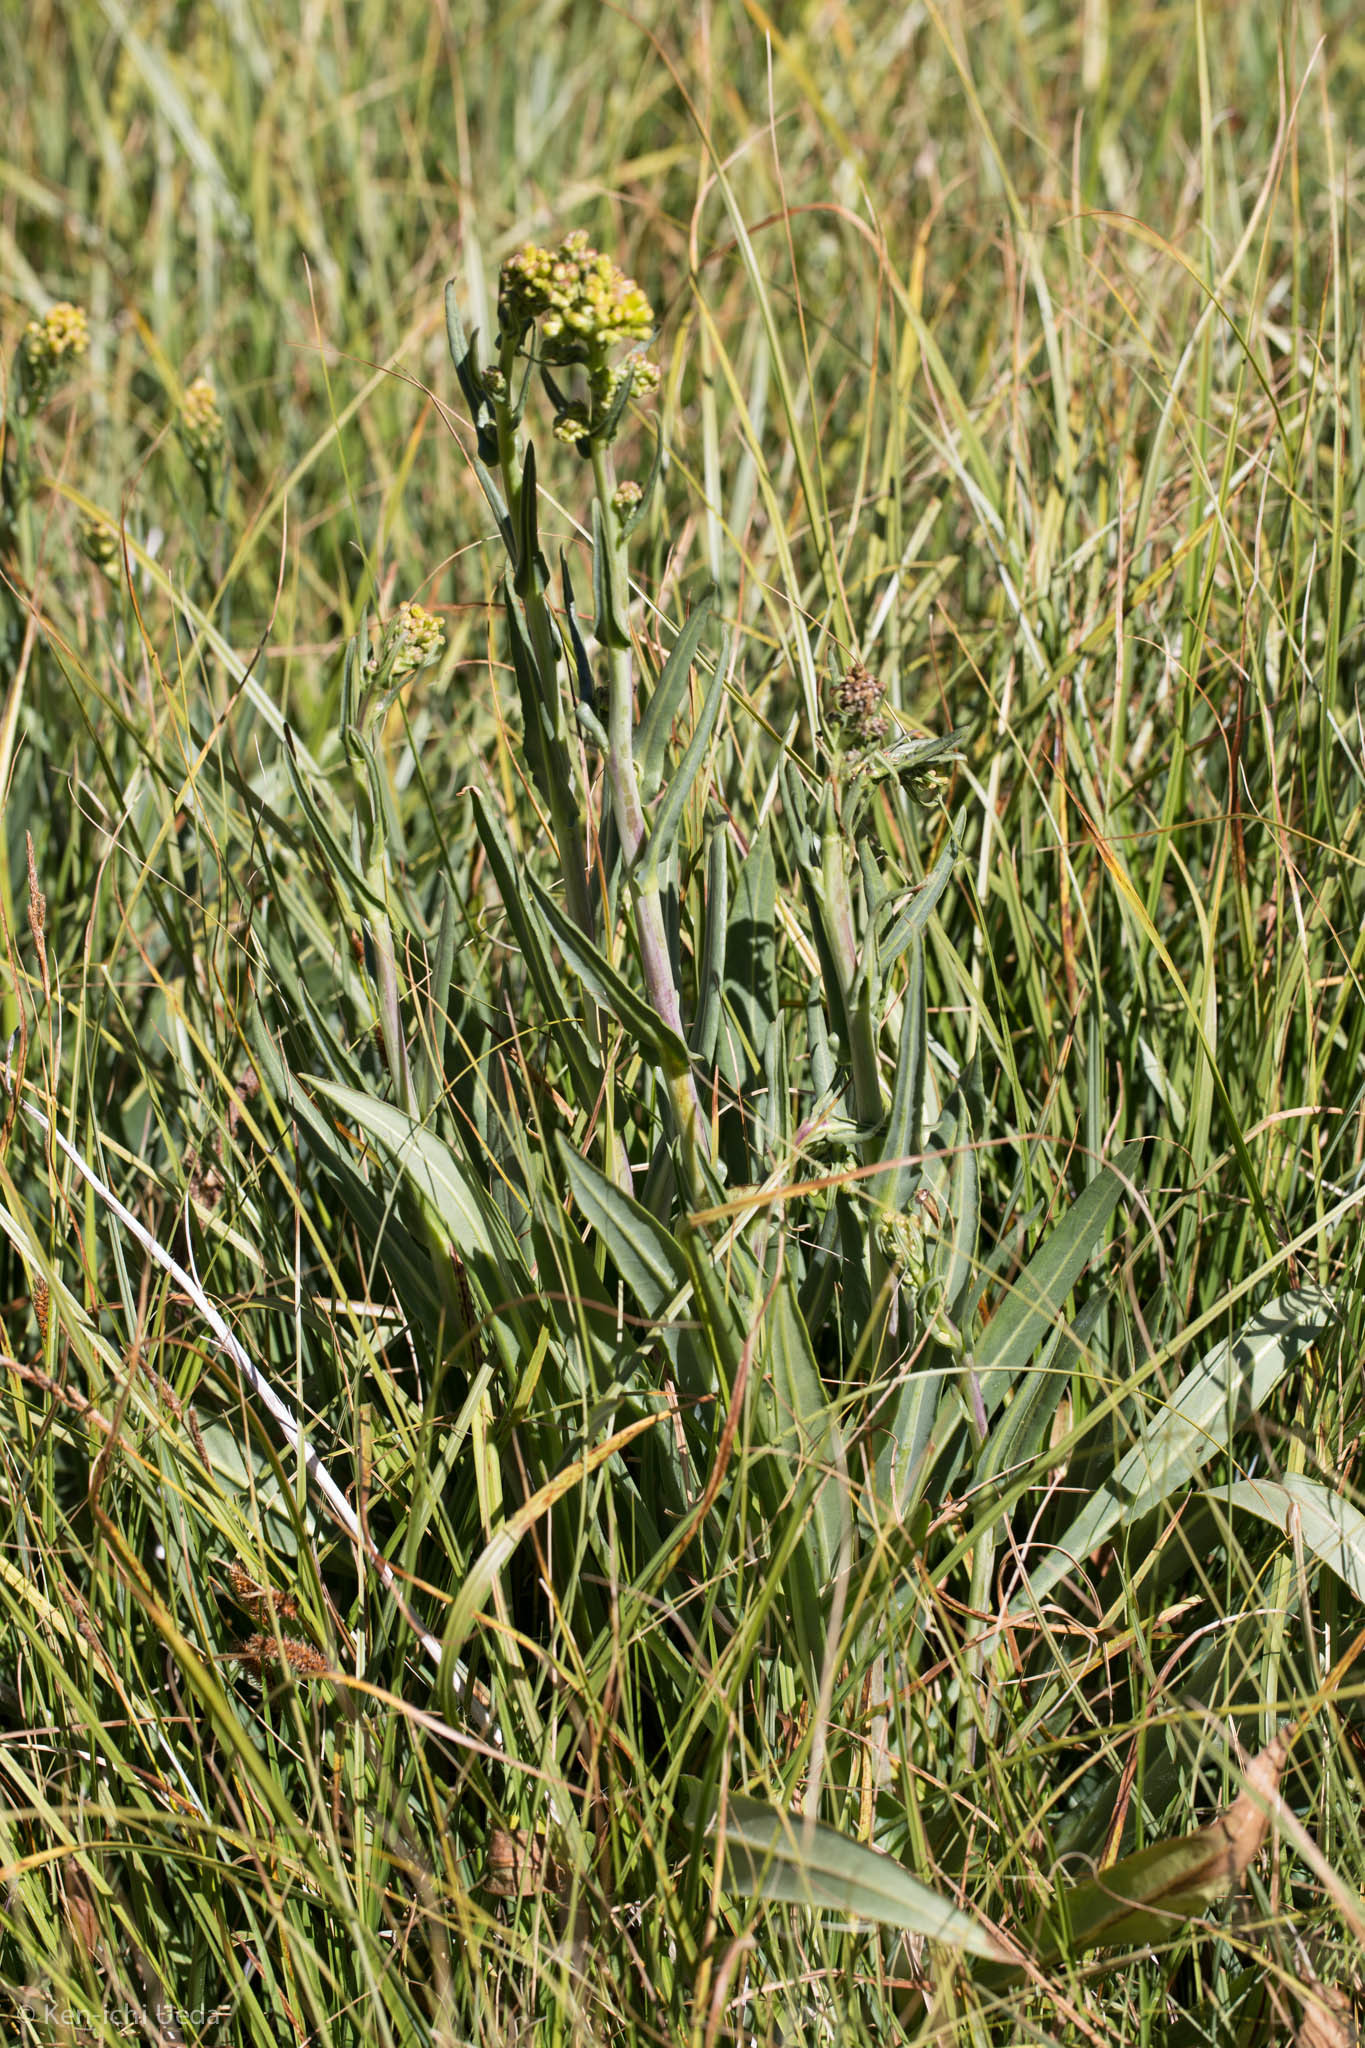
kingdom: Plantae
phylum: Tracheophyta
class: Magnoliopsida
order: Asterales
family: Asteraceae
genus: Senecio
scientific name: Senecio hydrophilus
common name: Water ragwort
